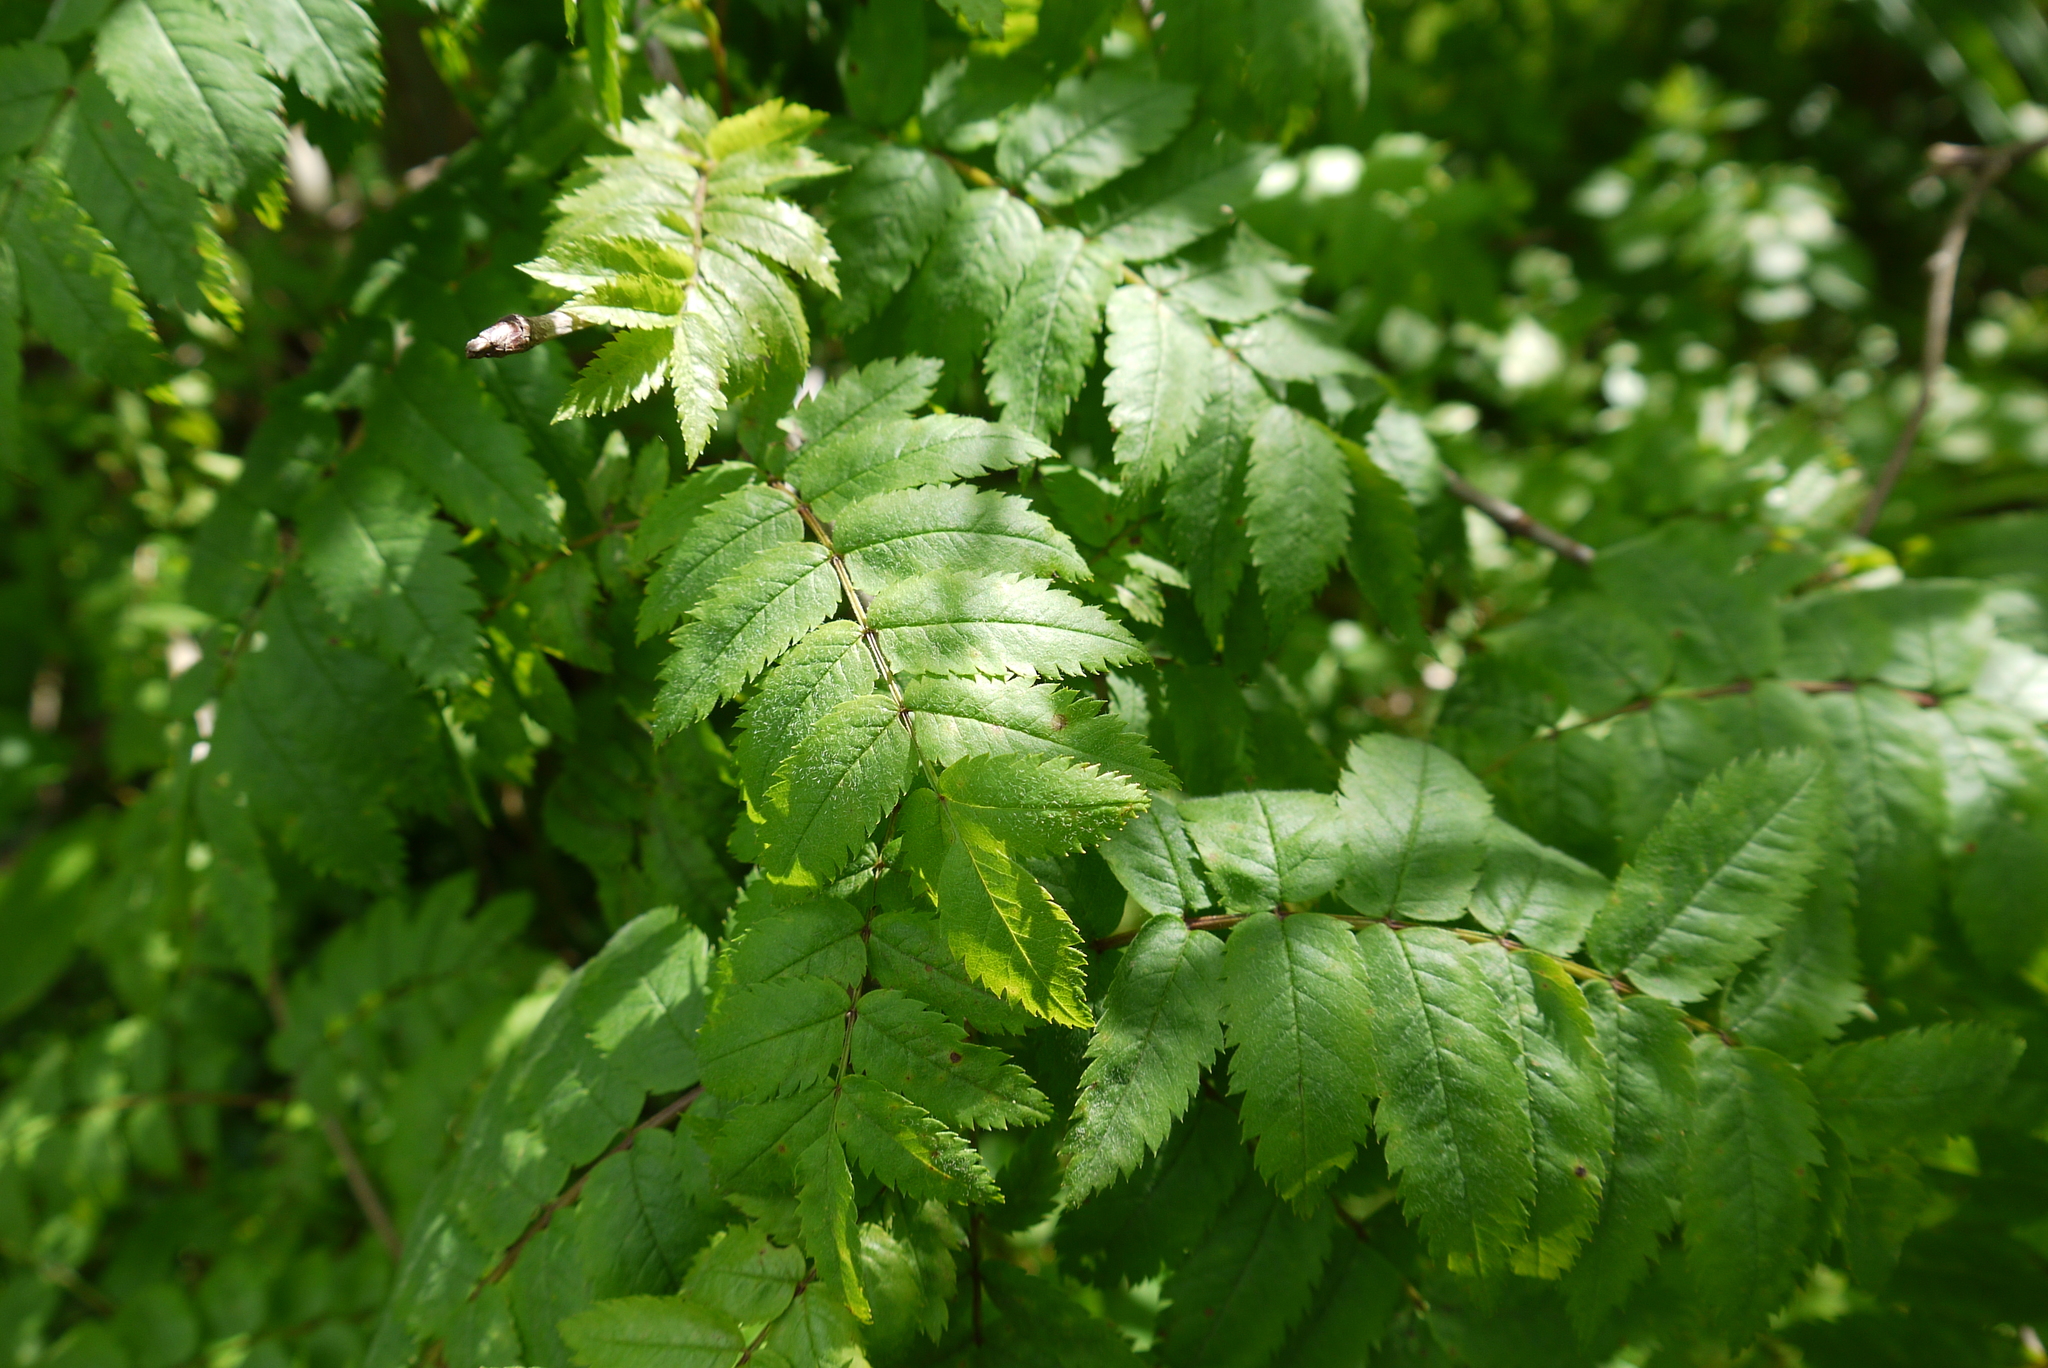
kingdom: Plantae
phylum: Tracheophyta
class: Magnoliopsida
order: Rosales
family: Rosaceae
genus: Sorbus
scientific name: Sorbus aucuparia
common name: Rowan
